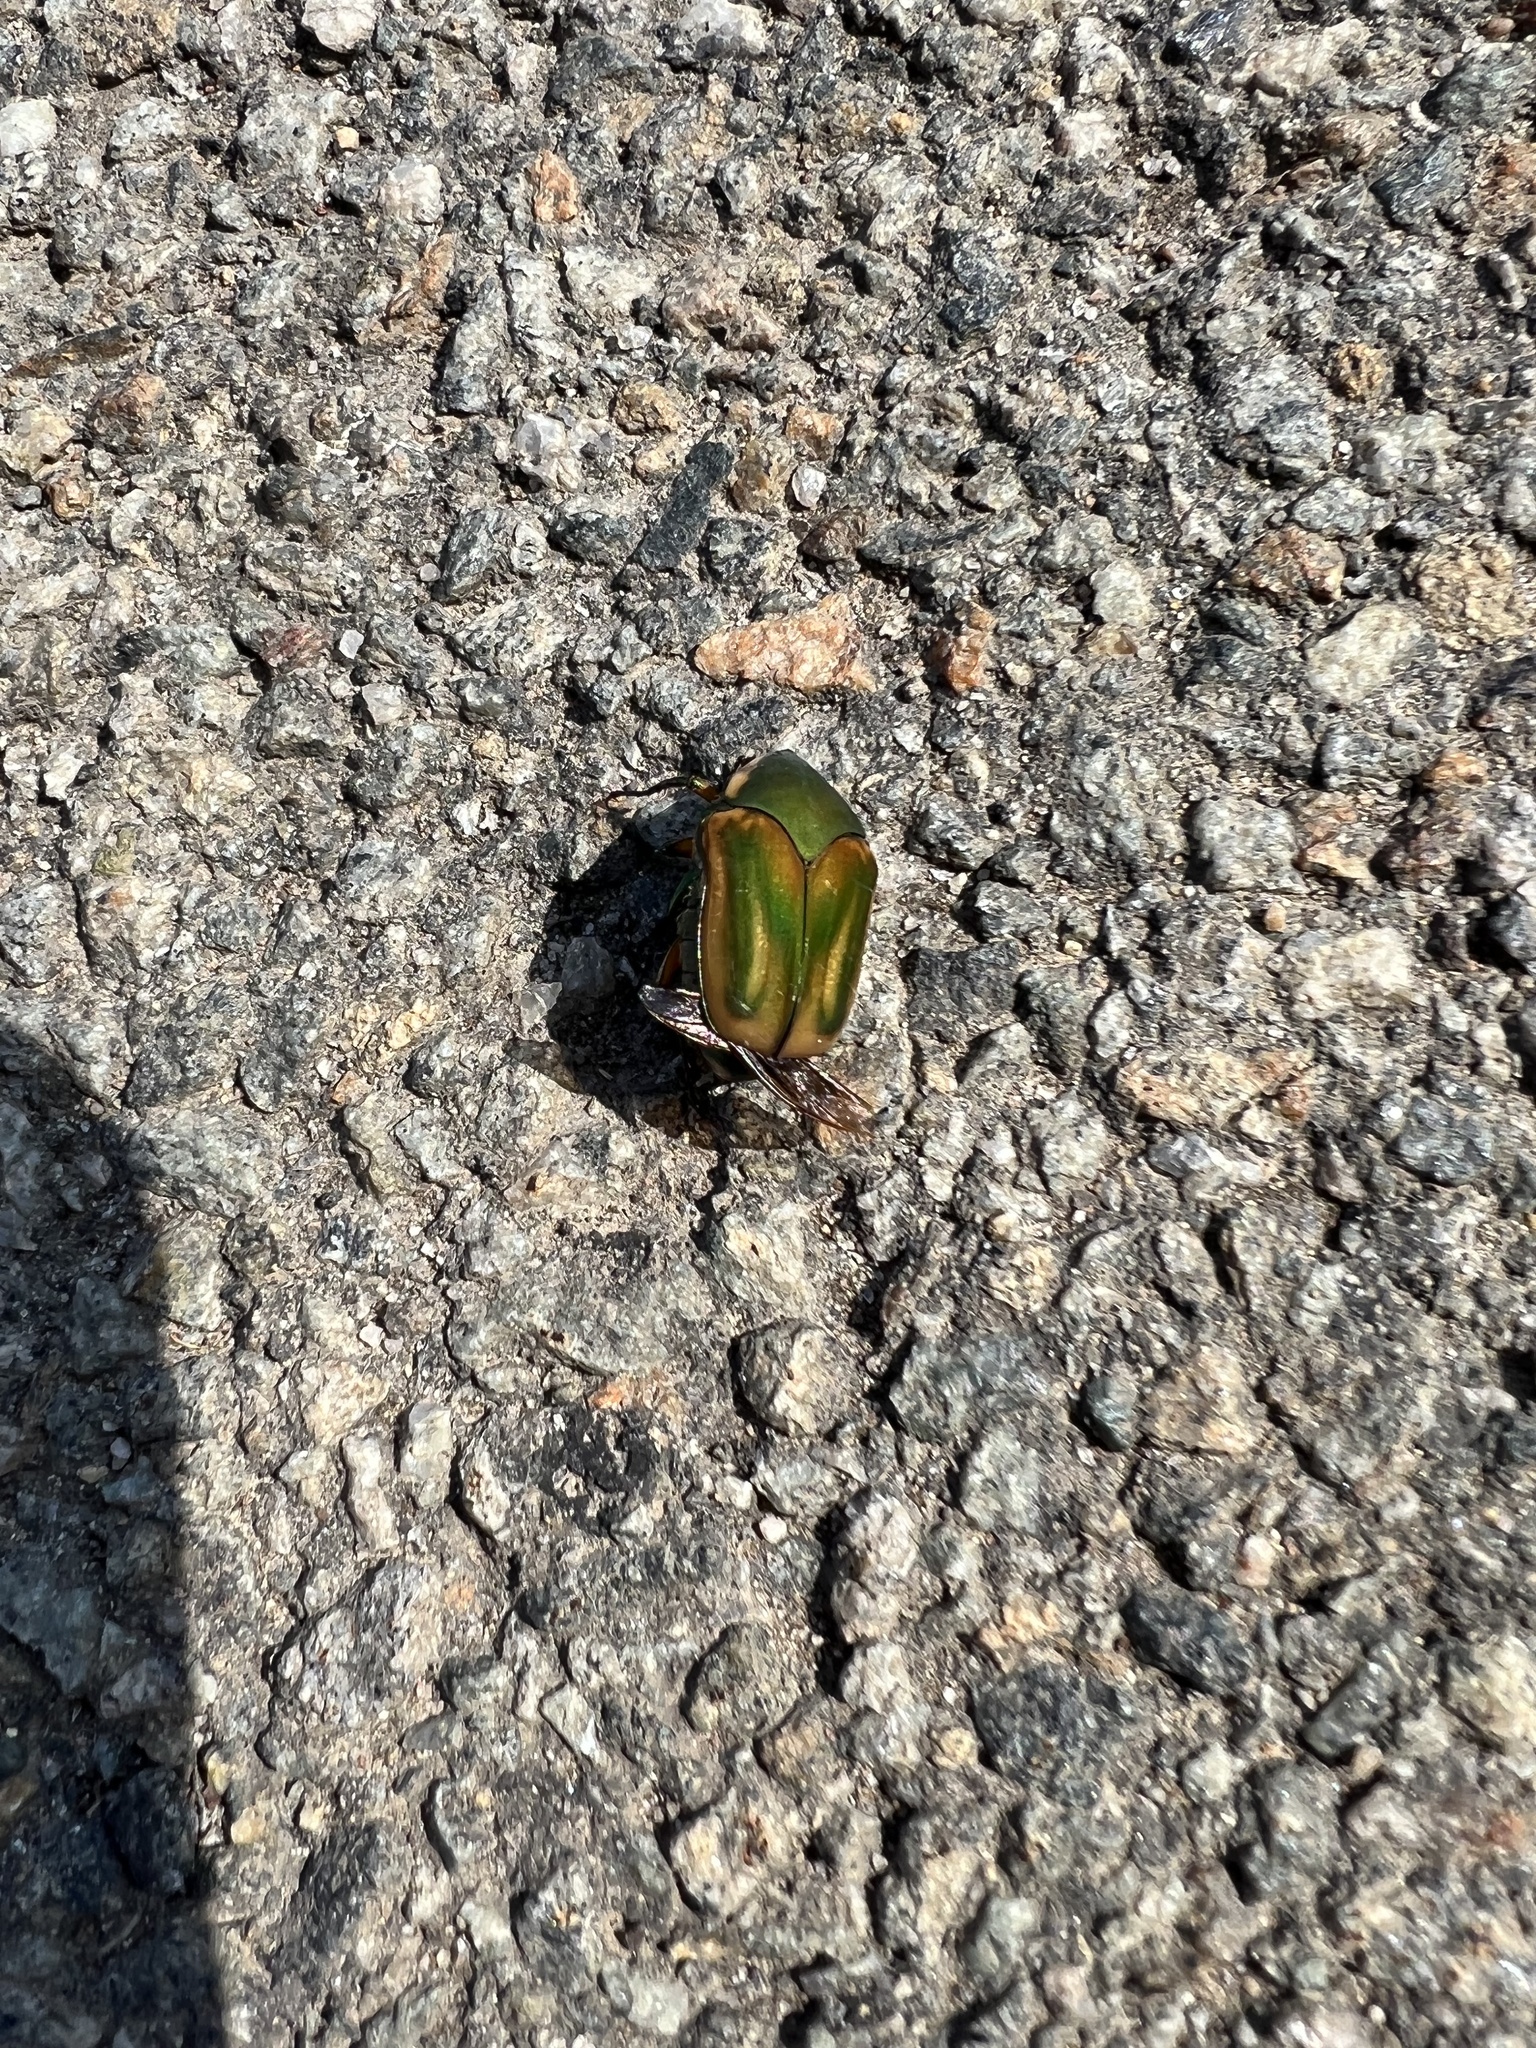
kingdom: Animalia
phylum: Arthropoda
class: Insecta
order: Coleoptera
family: Scarabaeidae
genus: Cotinis
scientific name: Cotinis nitida
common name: Common green june beetle
